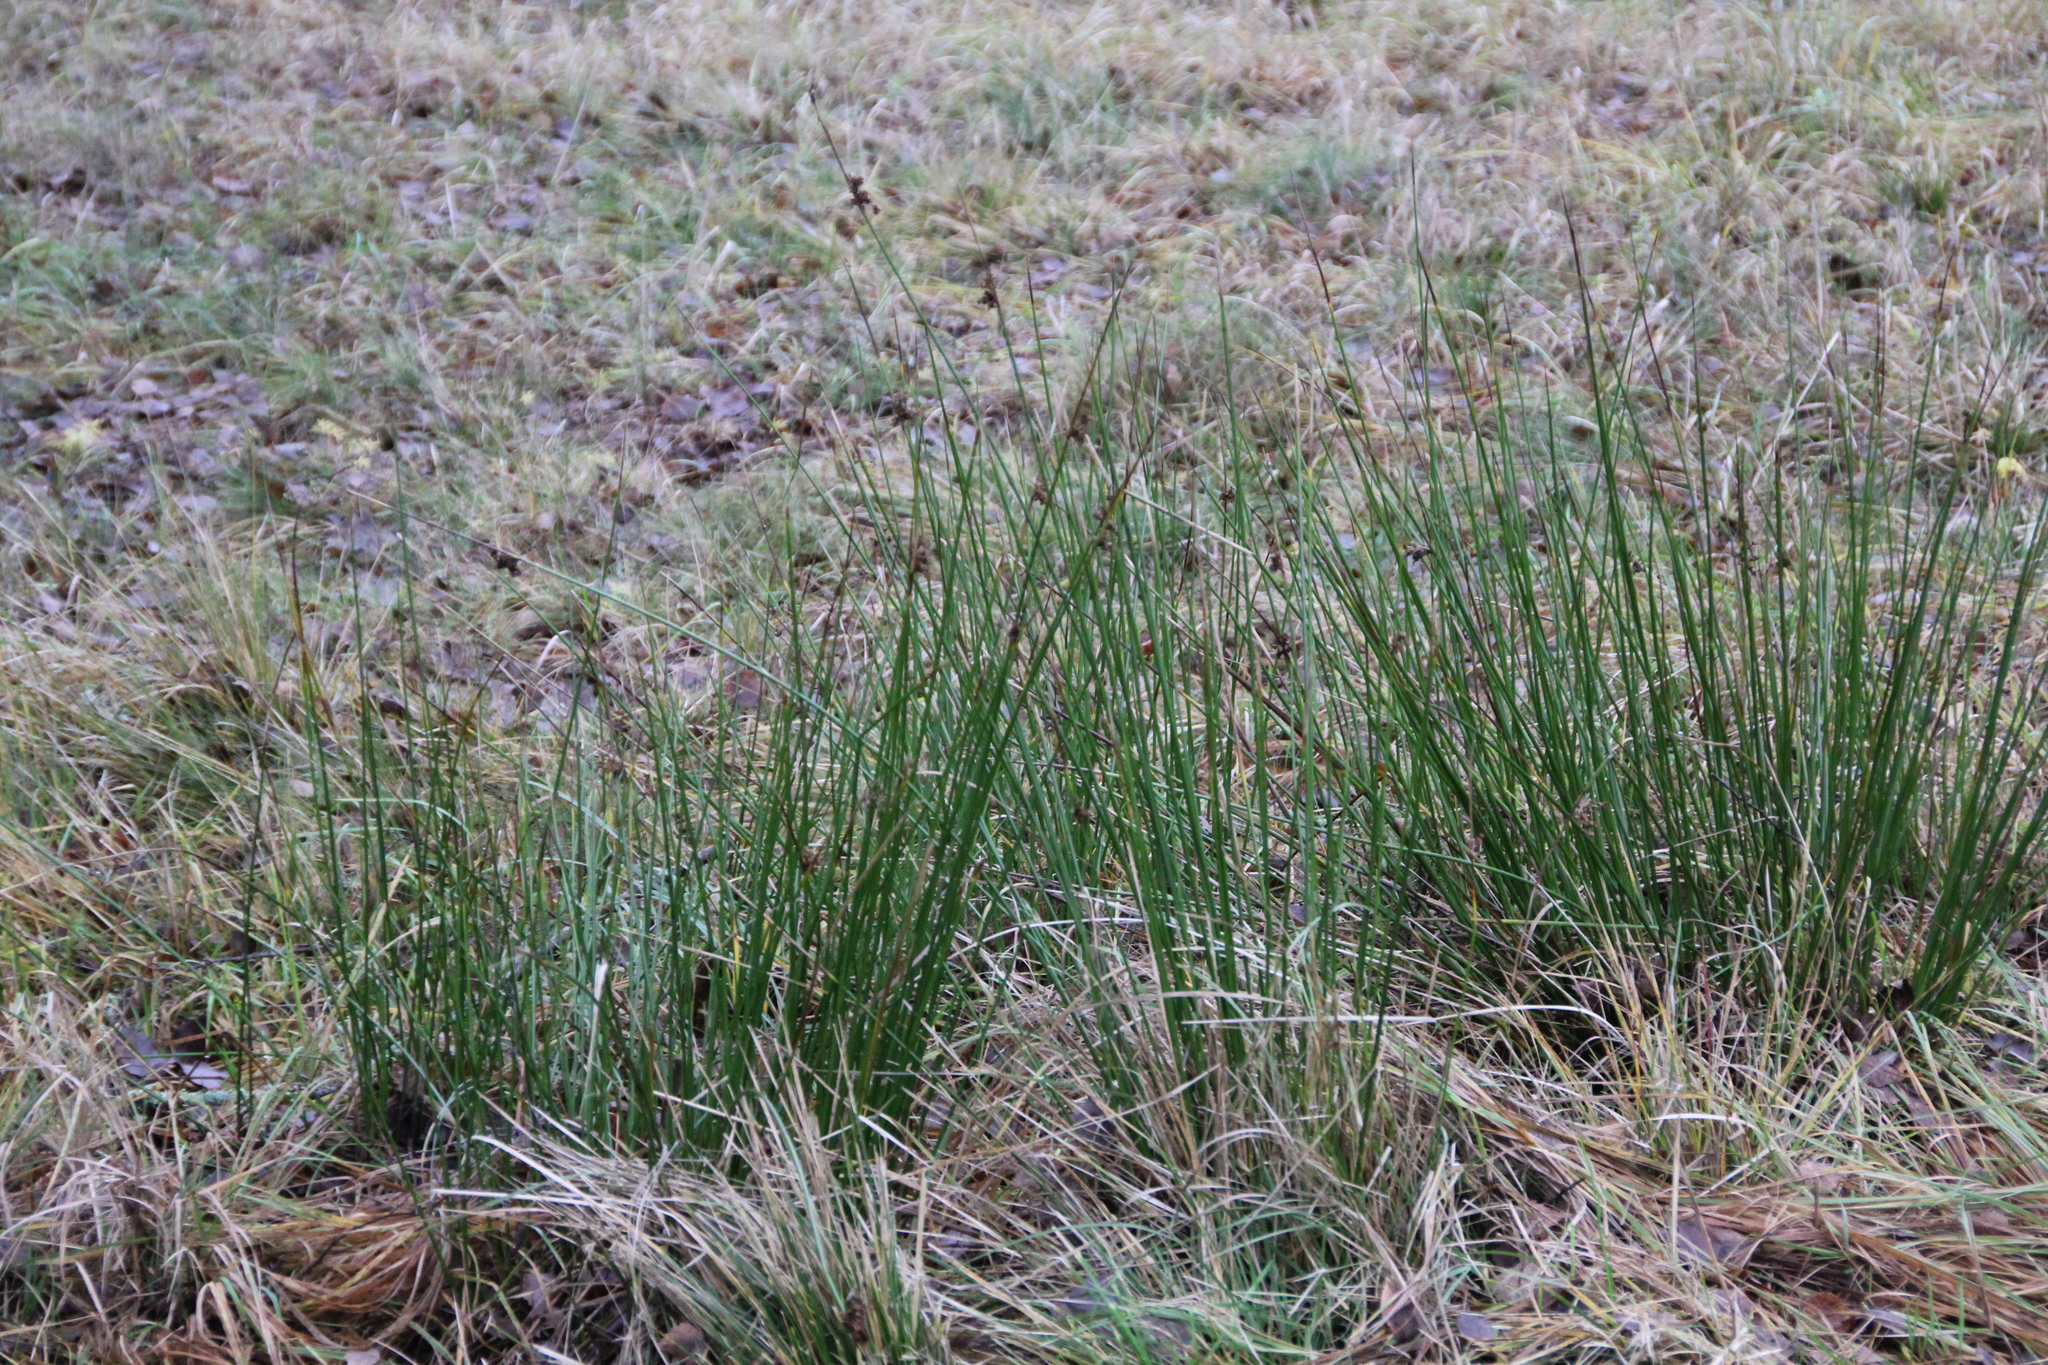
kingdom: Plantae
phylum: Tracheophyta
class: Liliopsida
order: Poales
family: Juncaceae
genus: Juncus
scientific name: Juncus effusus
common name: Soft rush
